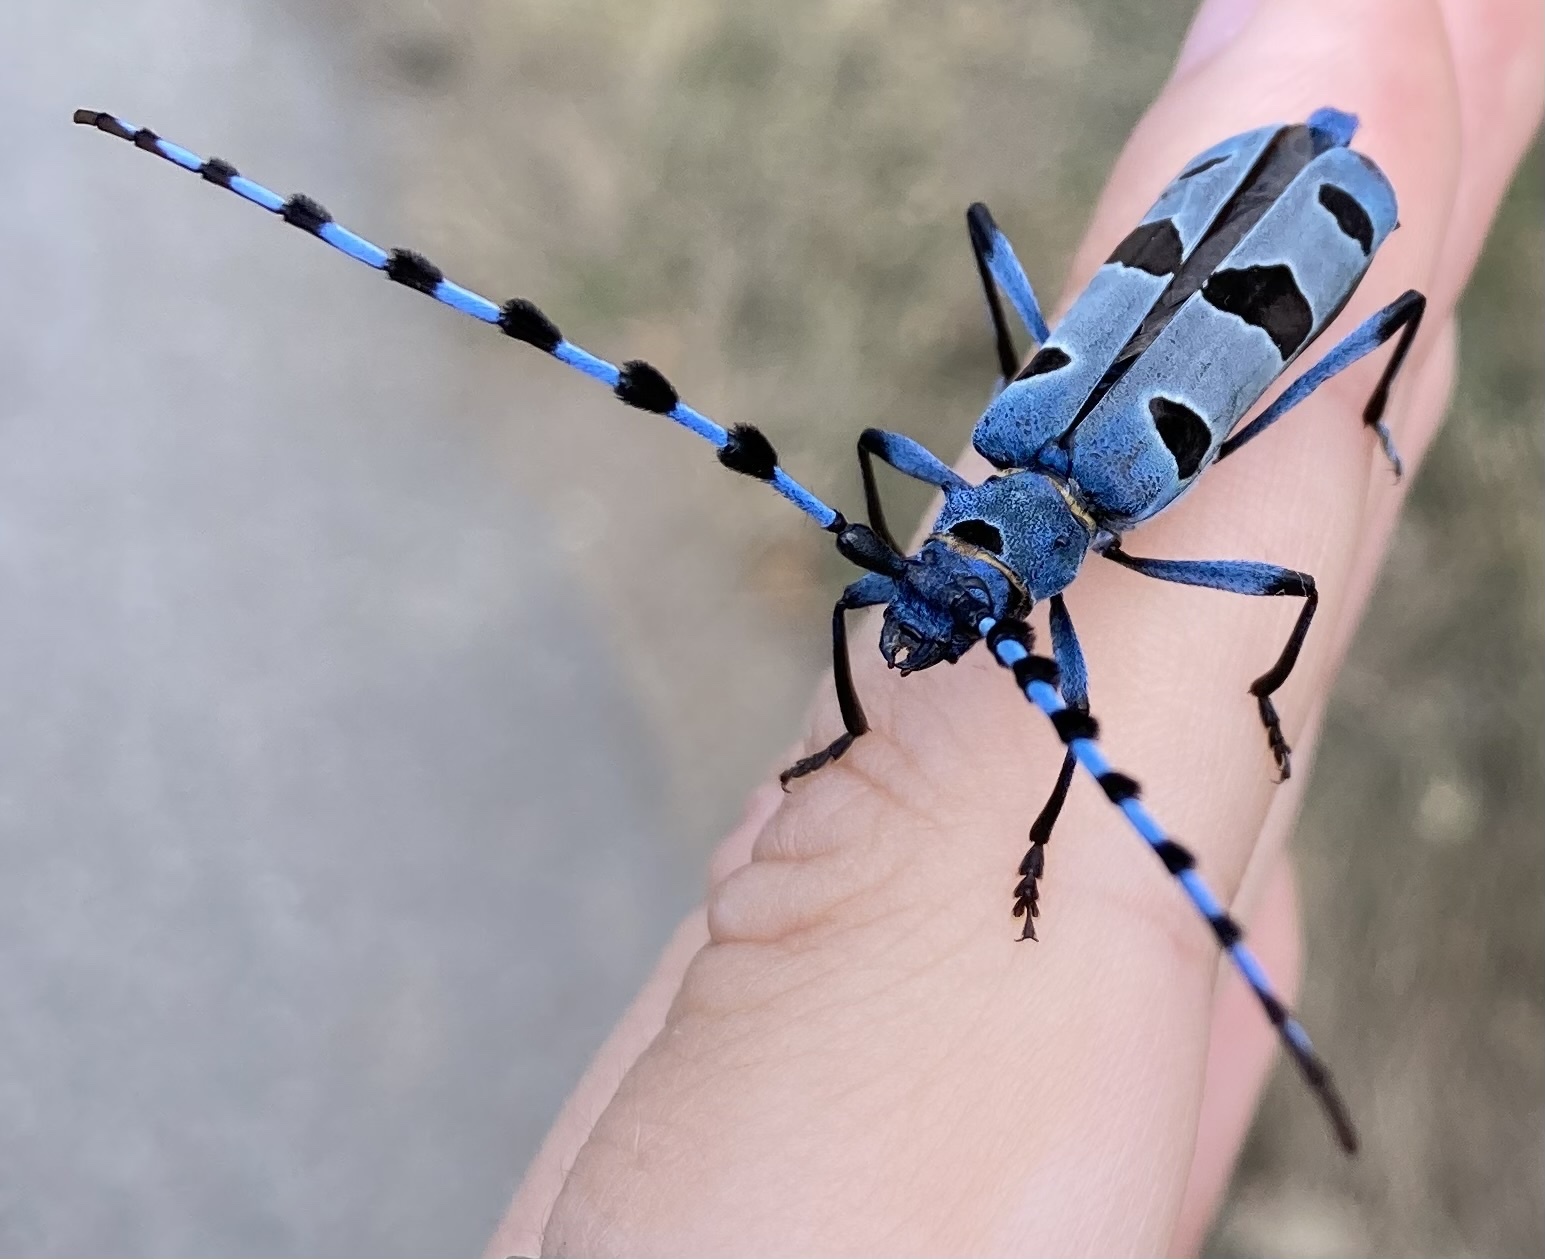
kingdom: Animalia
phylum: Arthropoda
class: Insecta
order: Coleoptera
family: Cerambycidae
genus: Rosalia
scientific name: Rosalia alpina
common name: Rosalia longicorn
